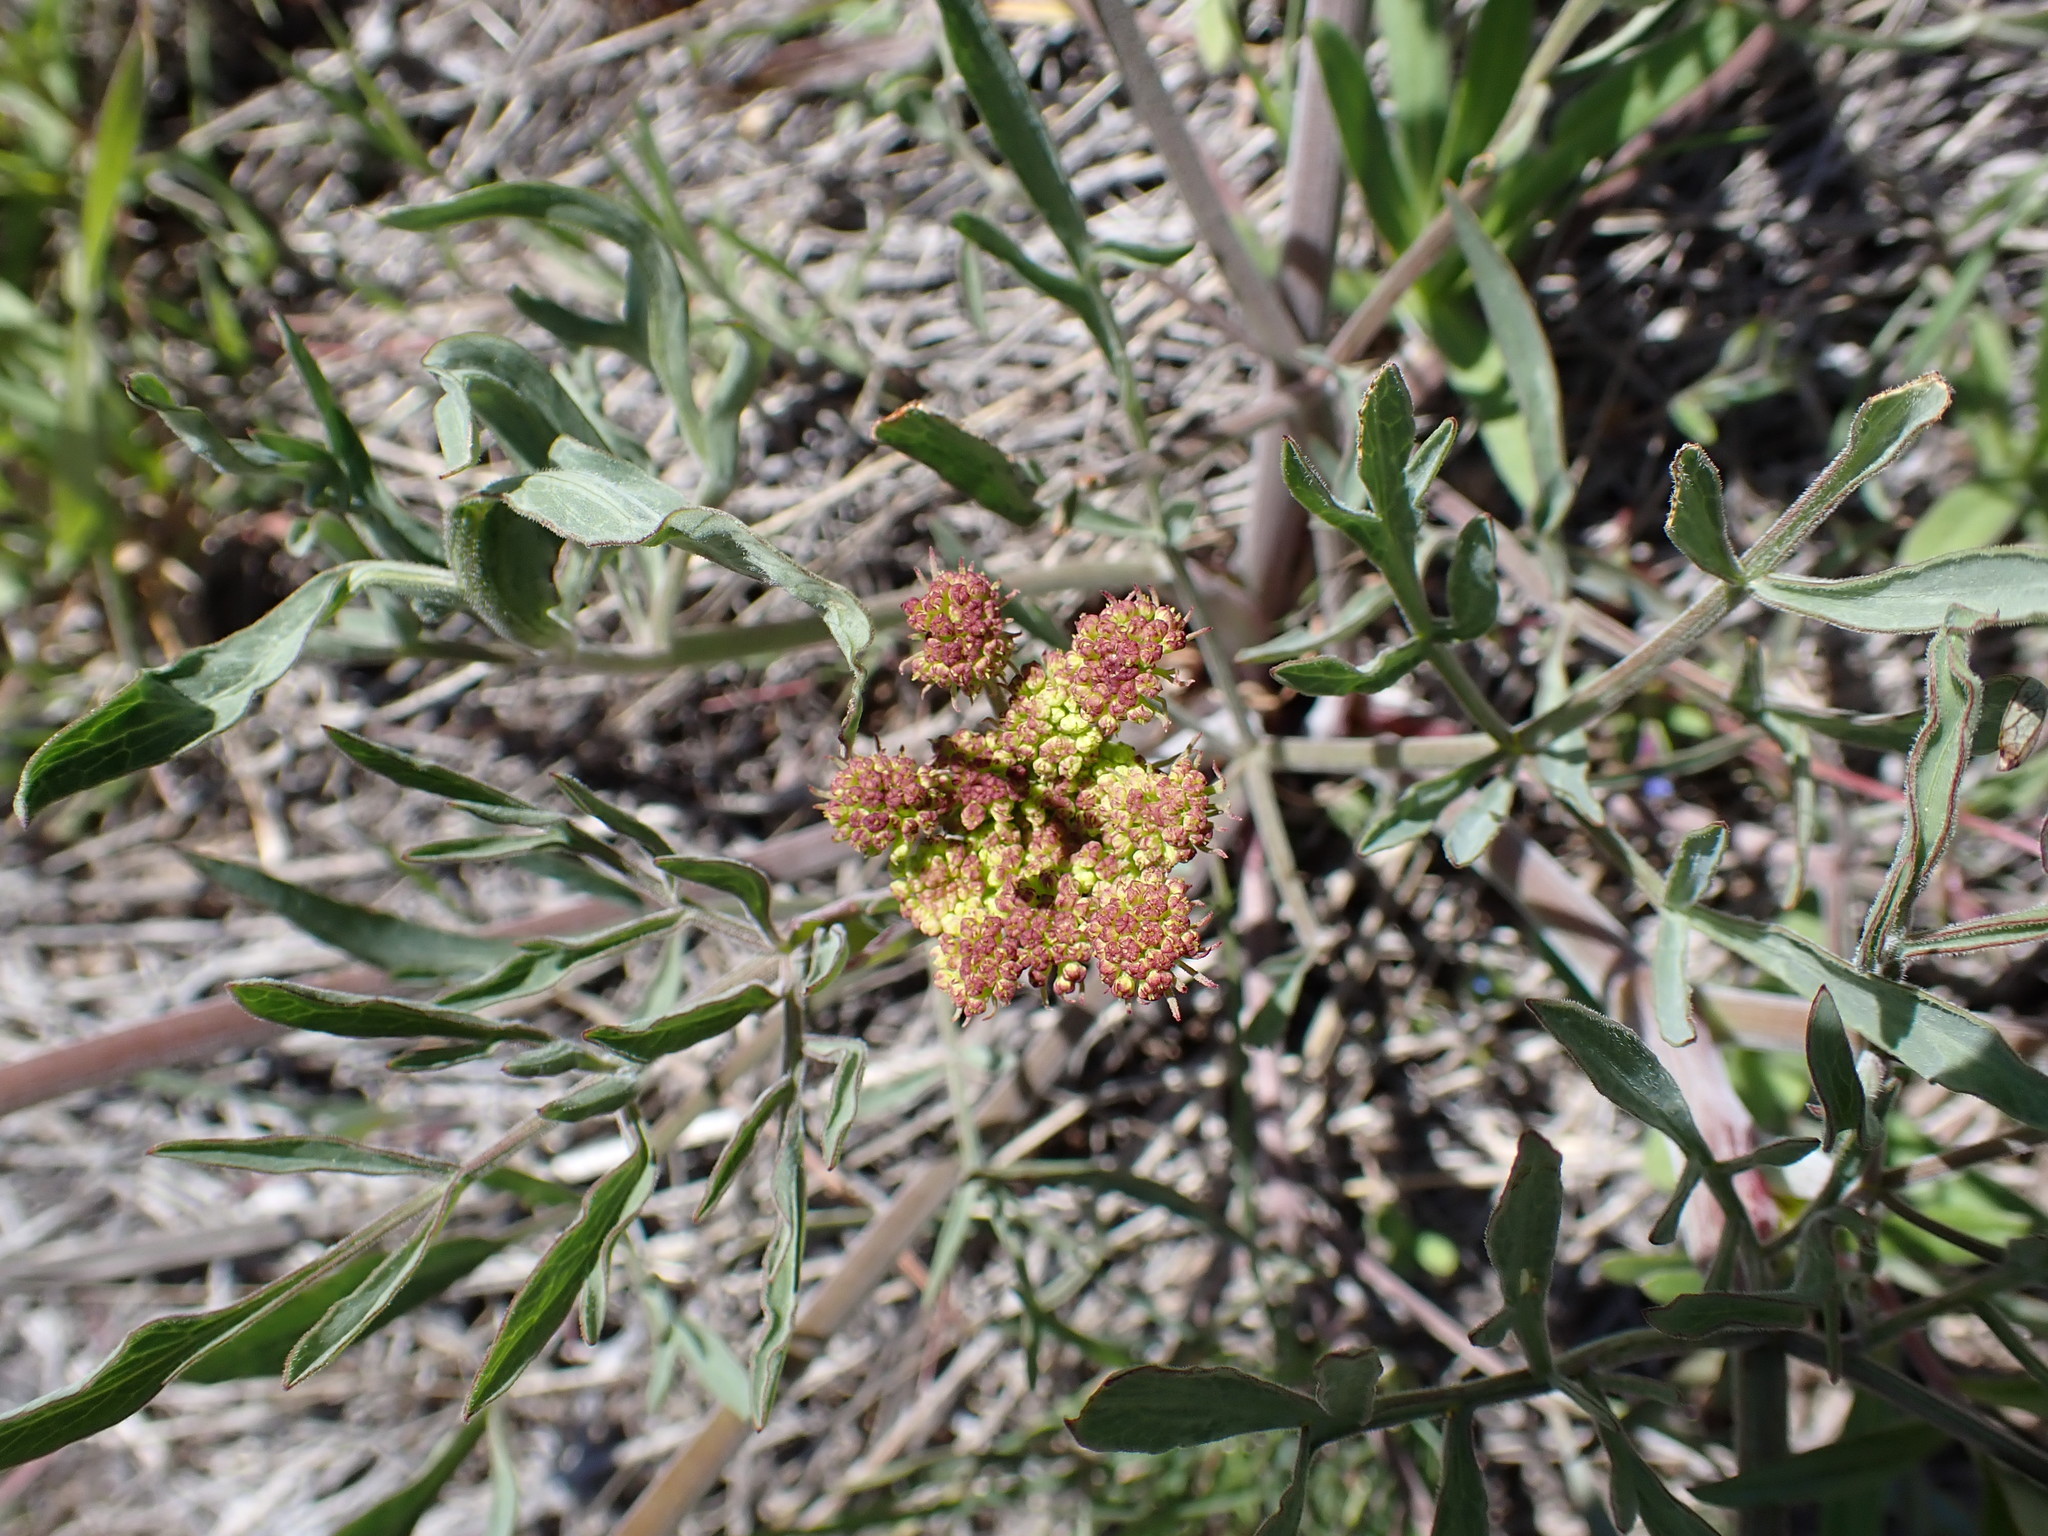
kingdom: Plantae
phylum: Tracheophyta
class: Magnoliopsida
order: Apiales
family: Apiaceae
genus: Lomatium
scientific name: Lomatium triternatum
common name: Ternate lomatium
